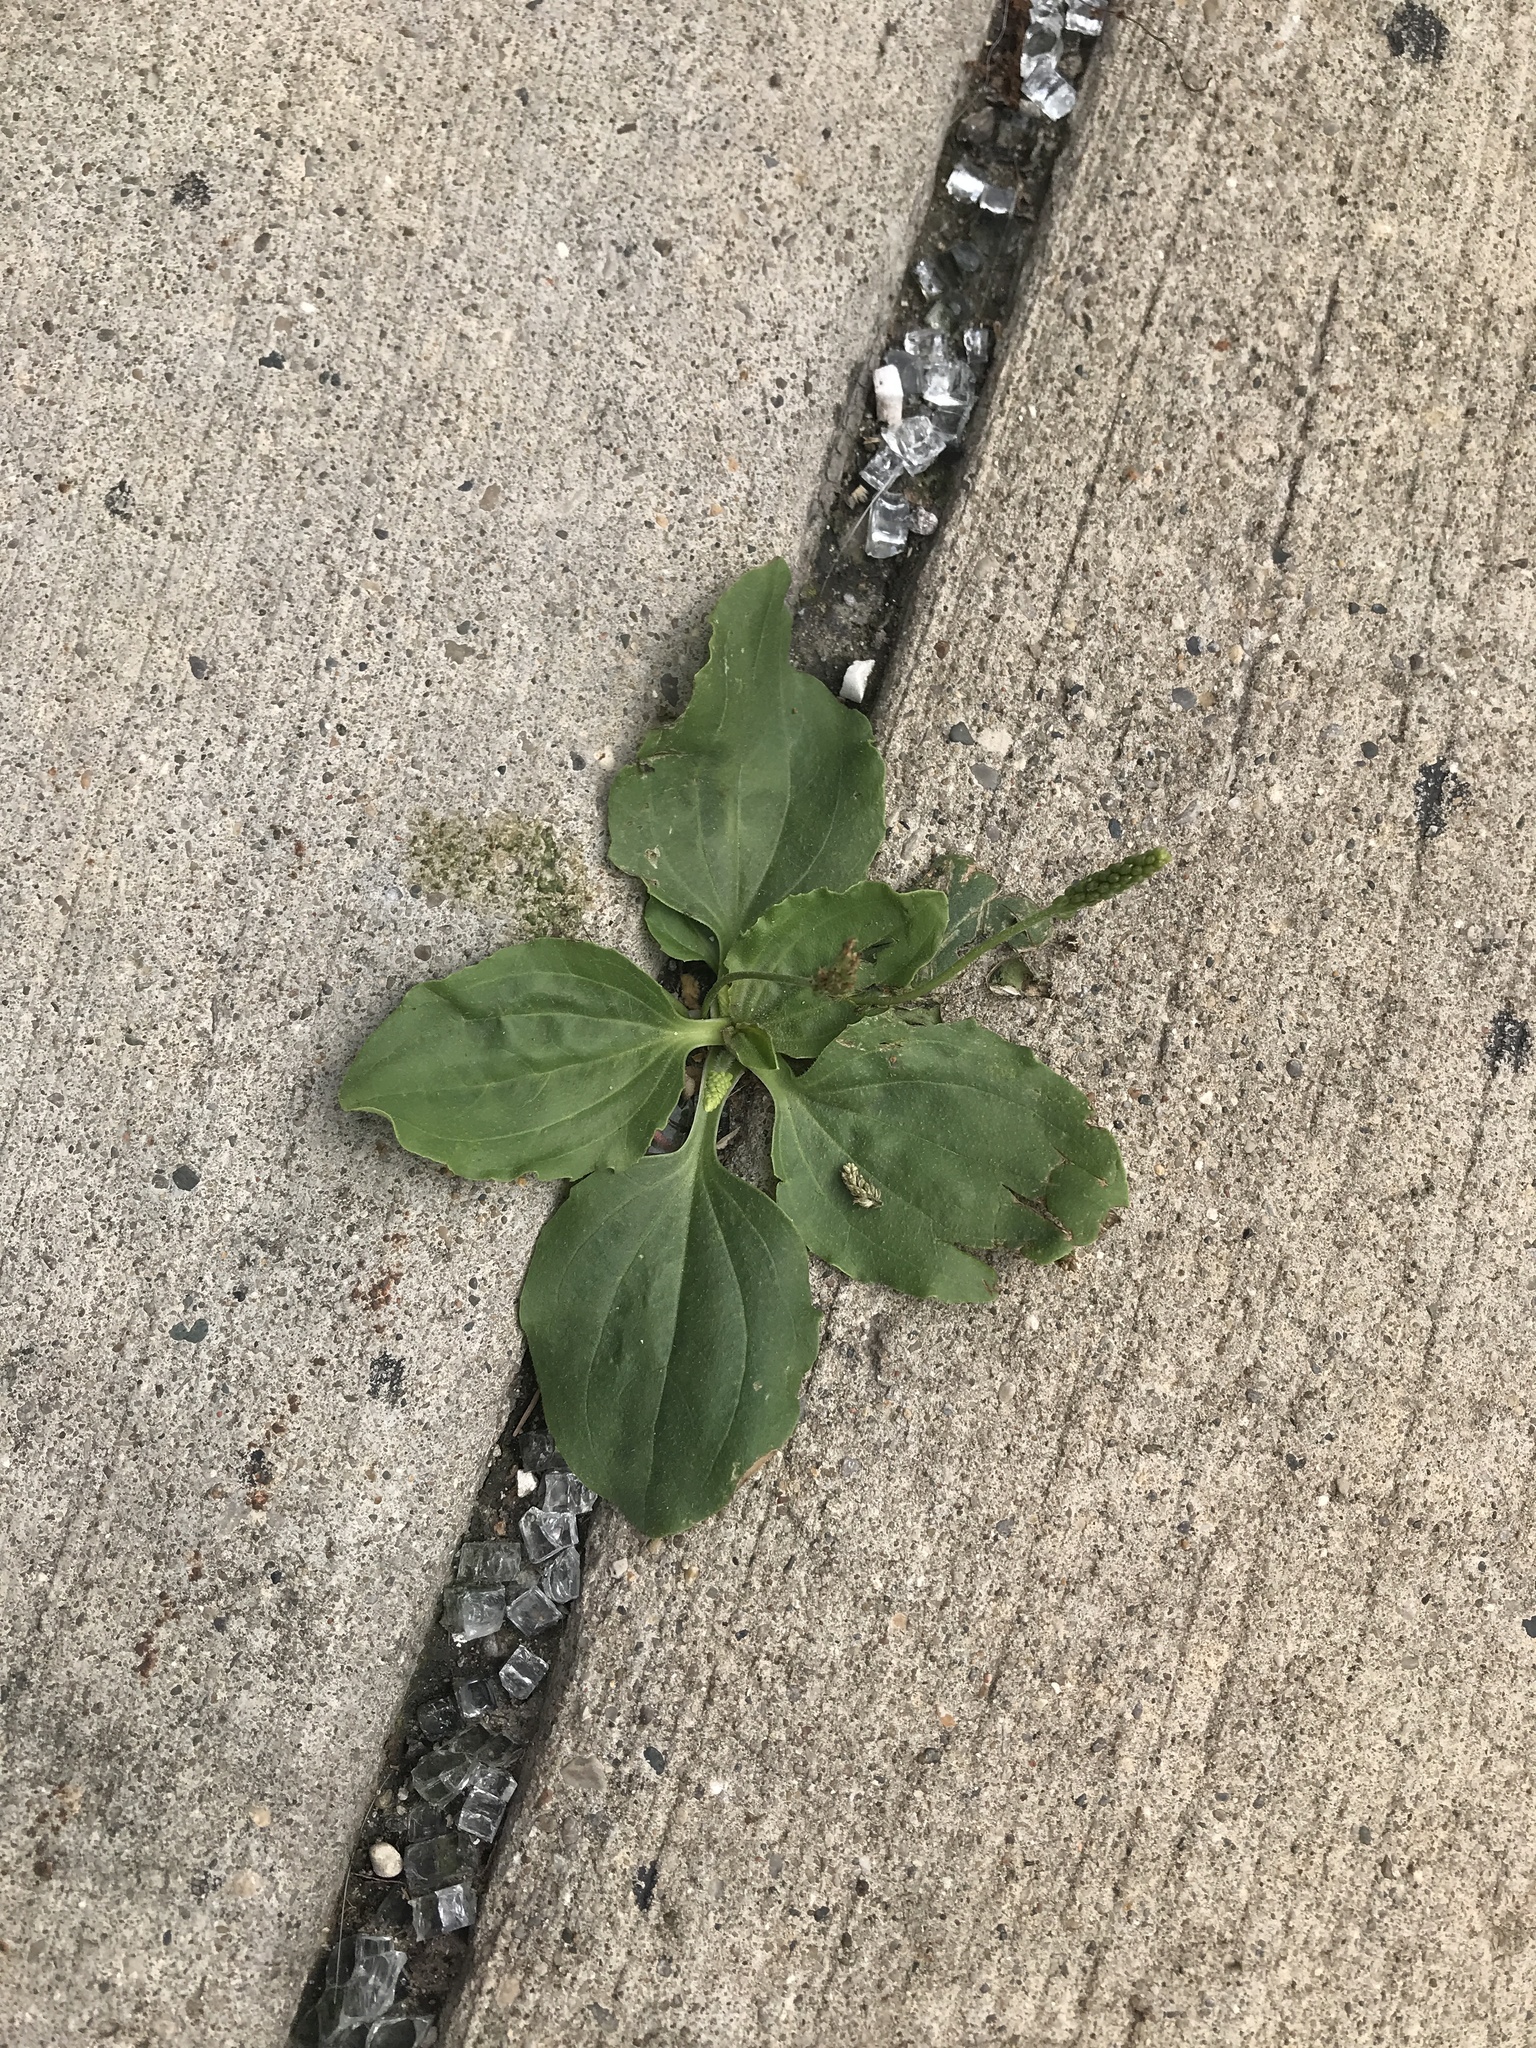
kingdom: Plantae
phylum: Tracheophyta
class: Magnoliopsida
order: Lamiales
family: Plantaginaceae
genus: Plantago
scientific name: Plantago major
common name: Common plantain
